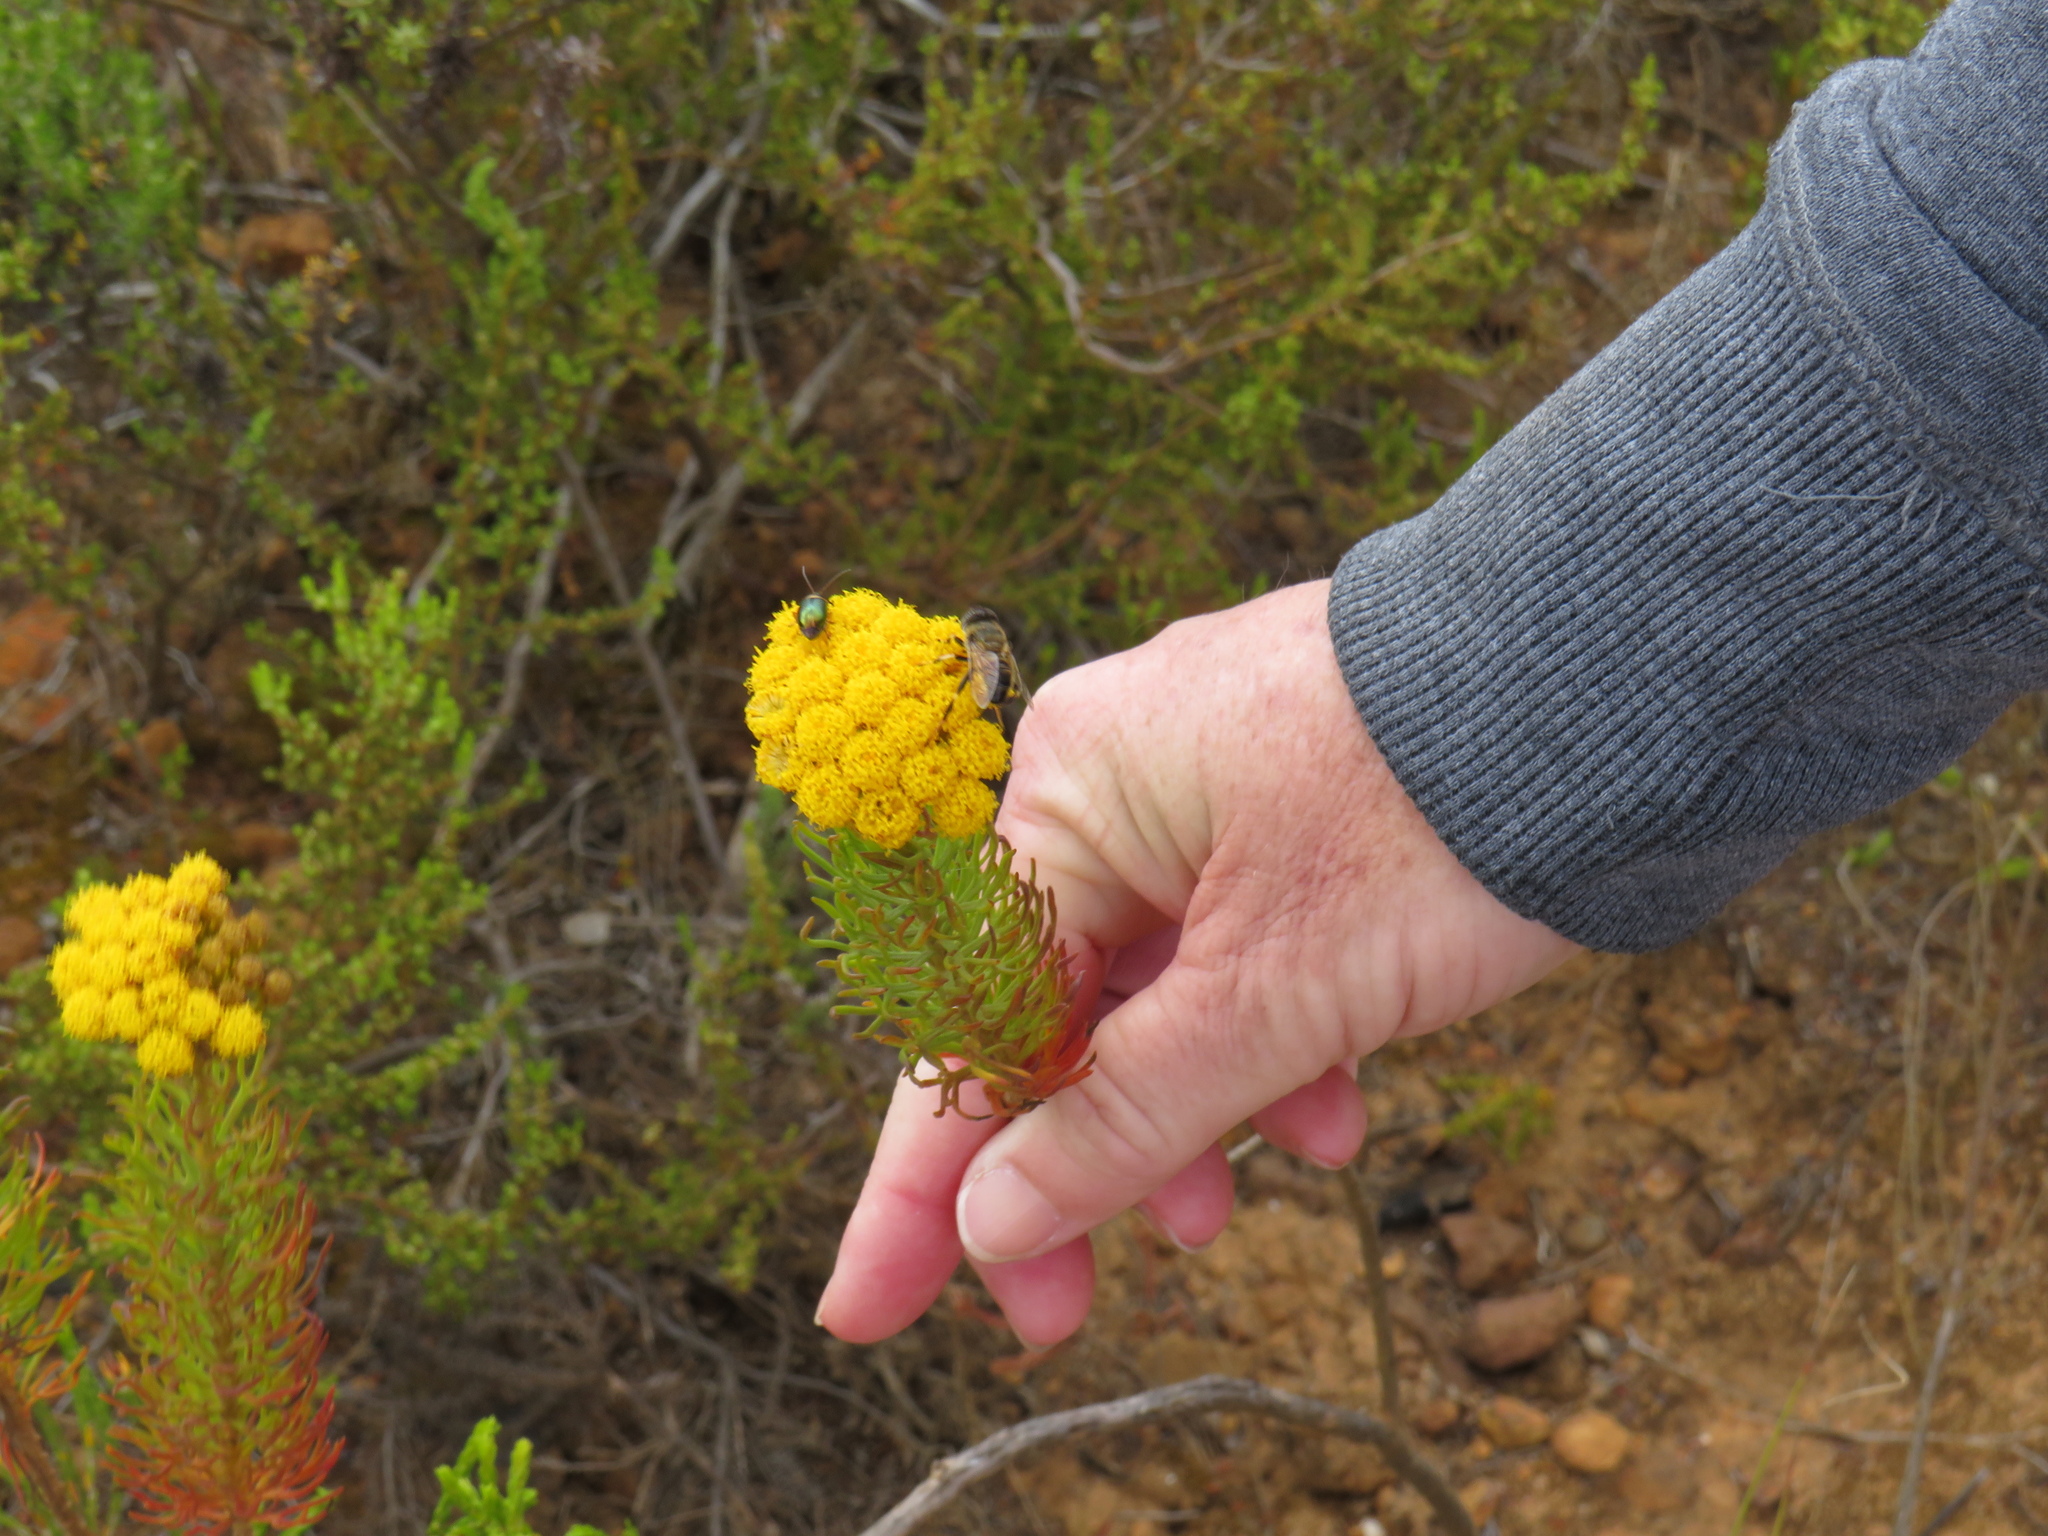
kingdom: Plantae
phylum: Tracheophyta
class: Magnoliopsida
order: Asterales
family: Asteraceae
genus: Athanasia
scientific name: Athanasia crithmifolia
